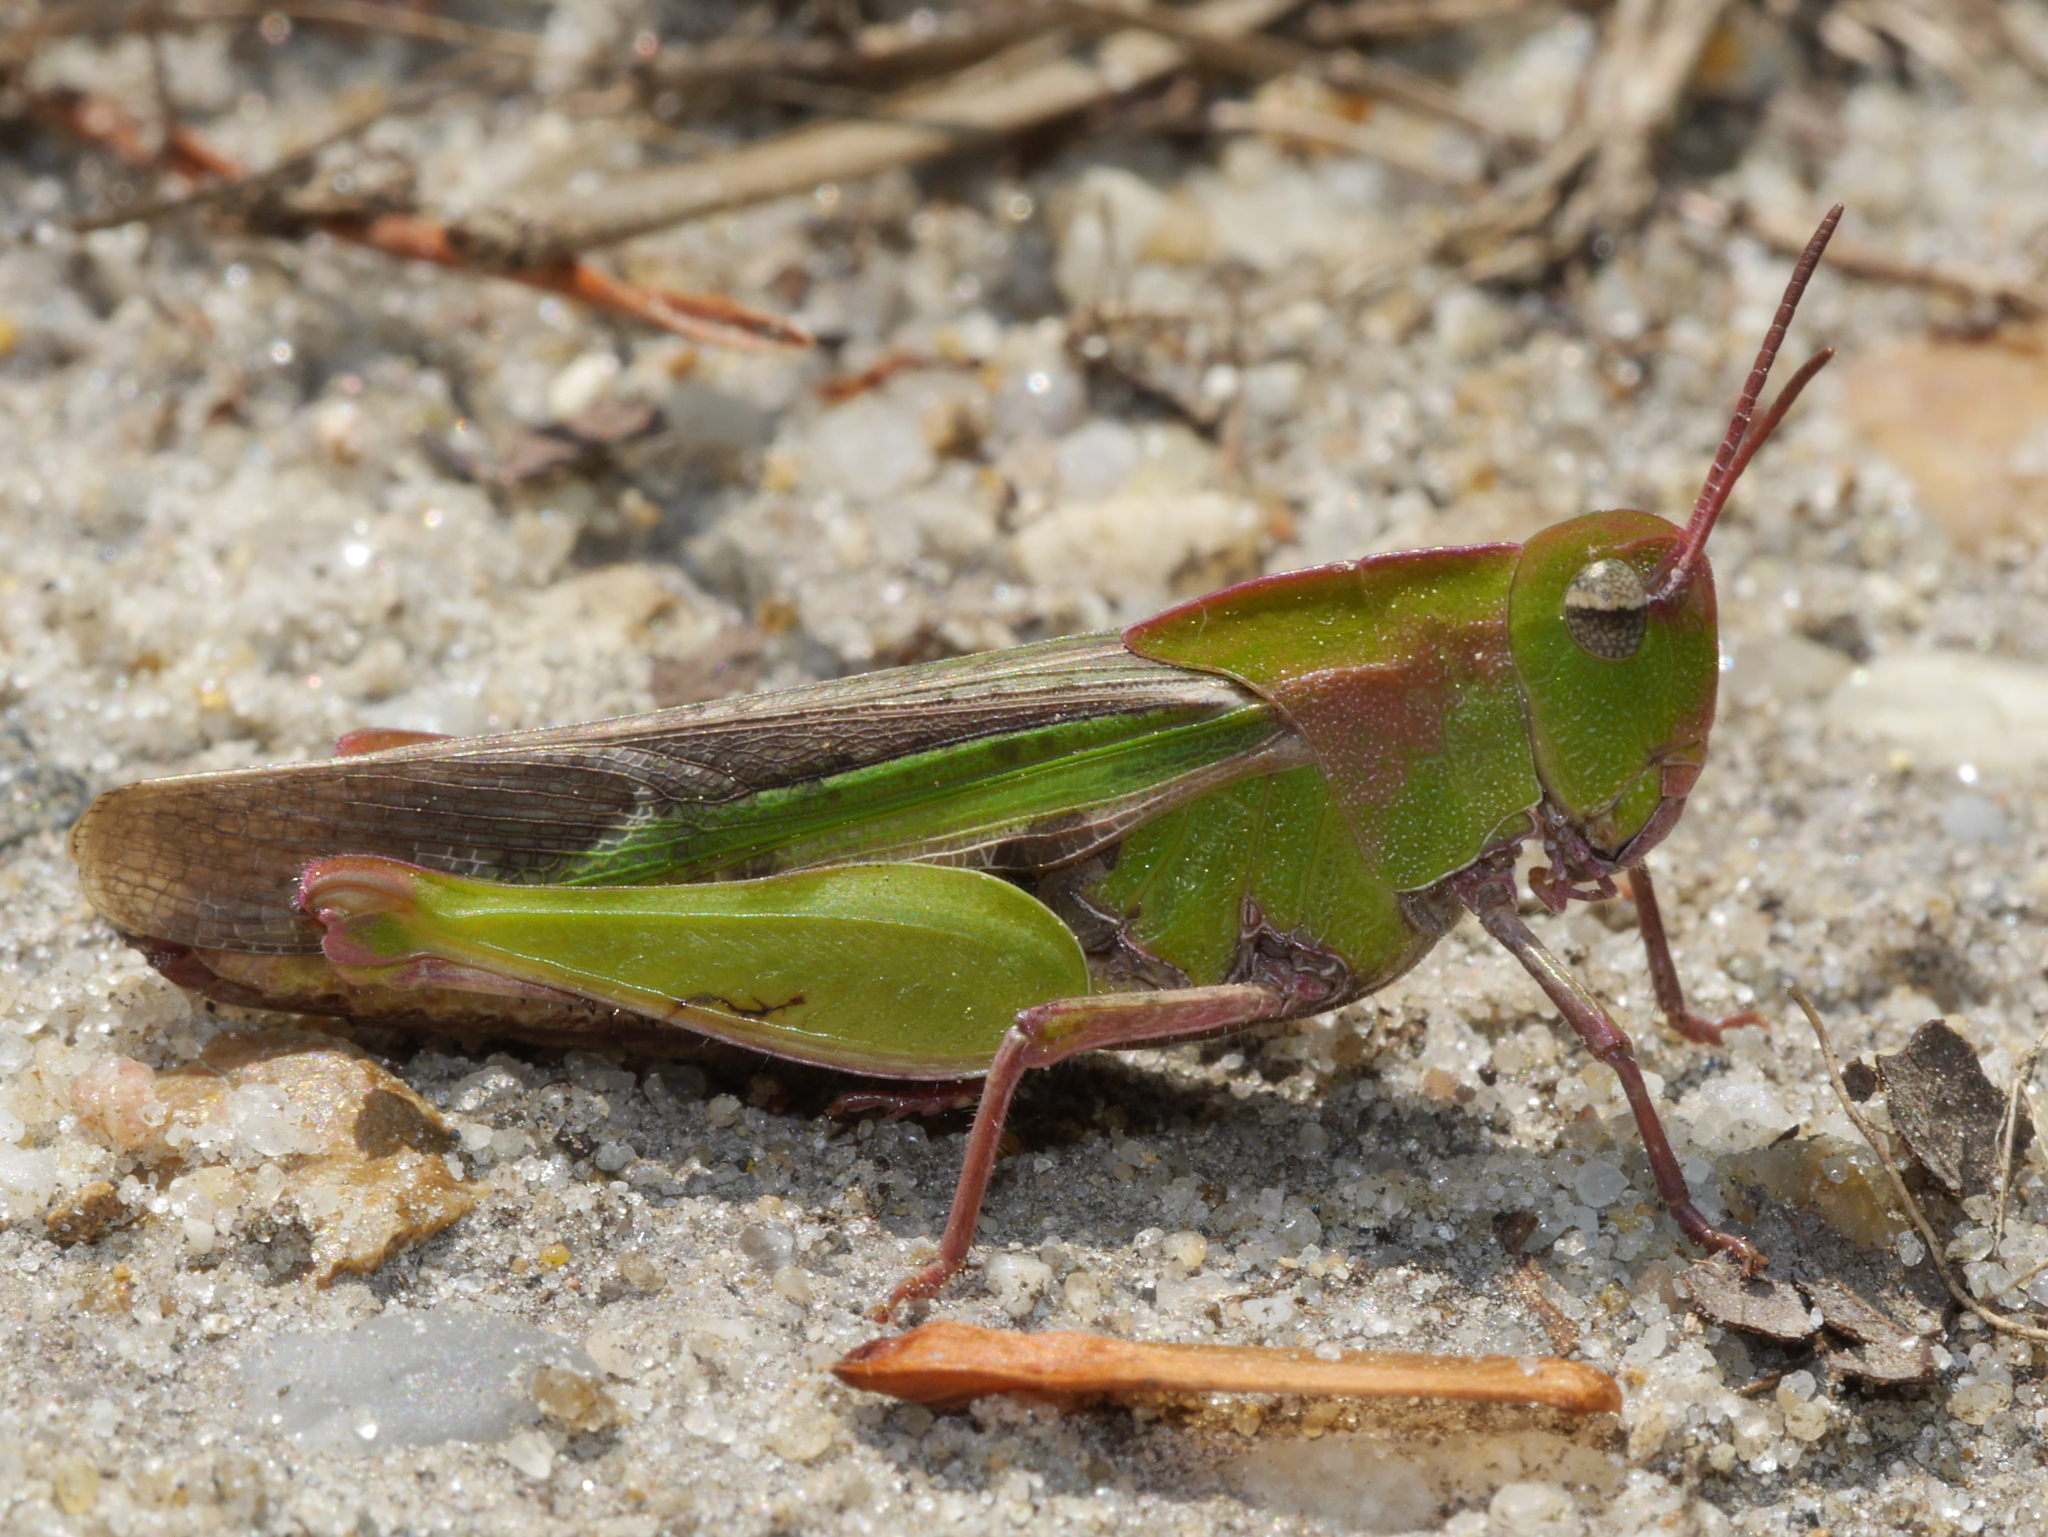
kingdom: Animalia
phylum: Arthropoda
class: Insecta
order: Orthoptera
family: Acrididae
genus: Chortophaga
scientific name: Chortophaga viridifasciata
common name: Green-striped grasshopper
